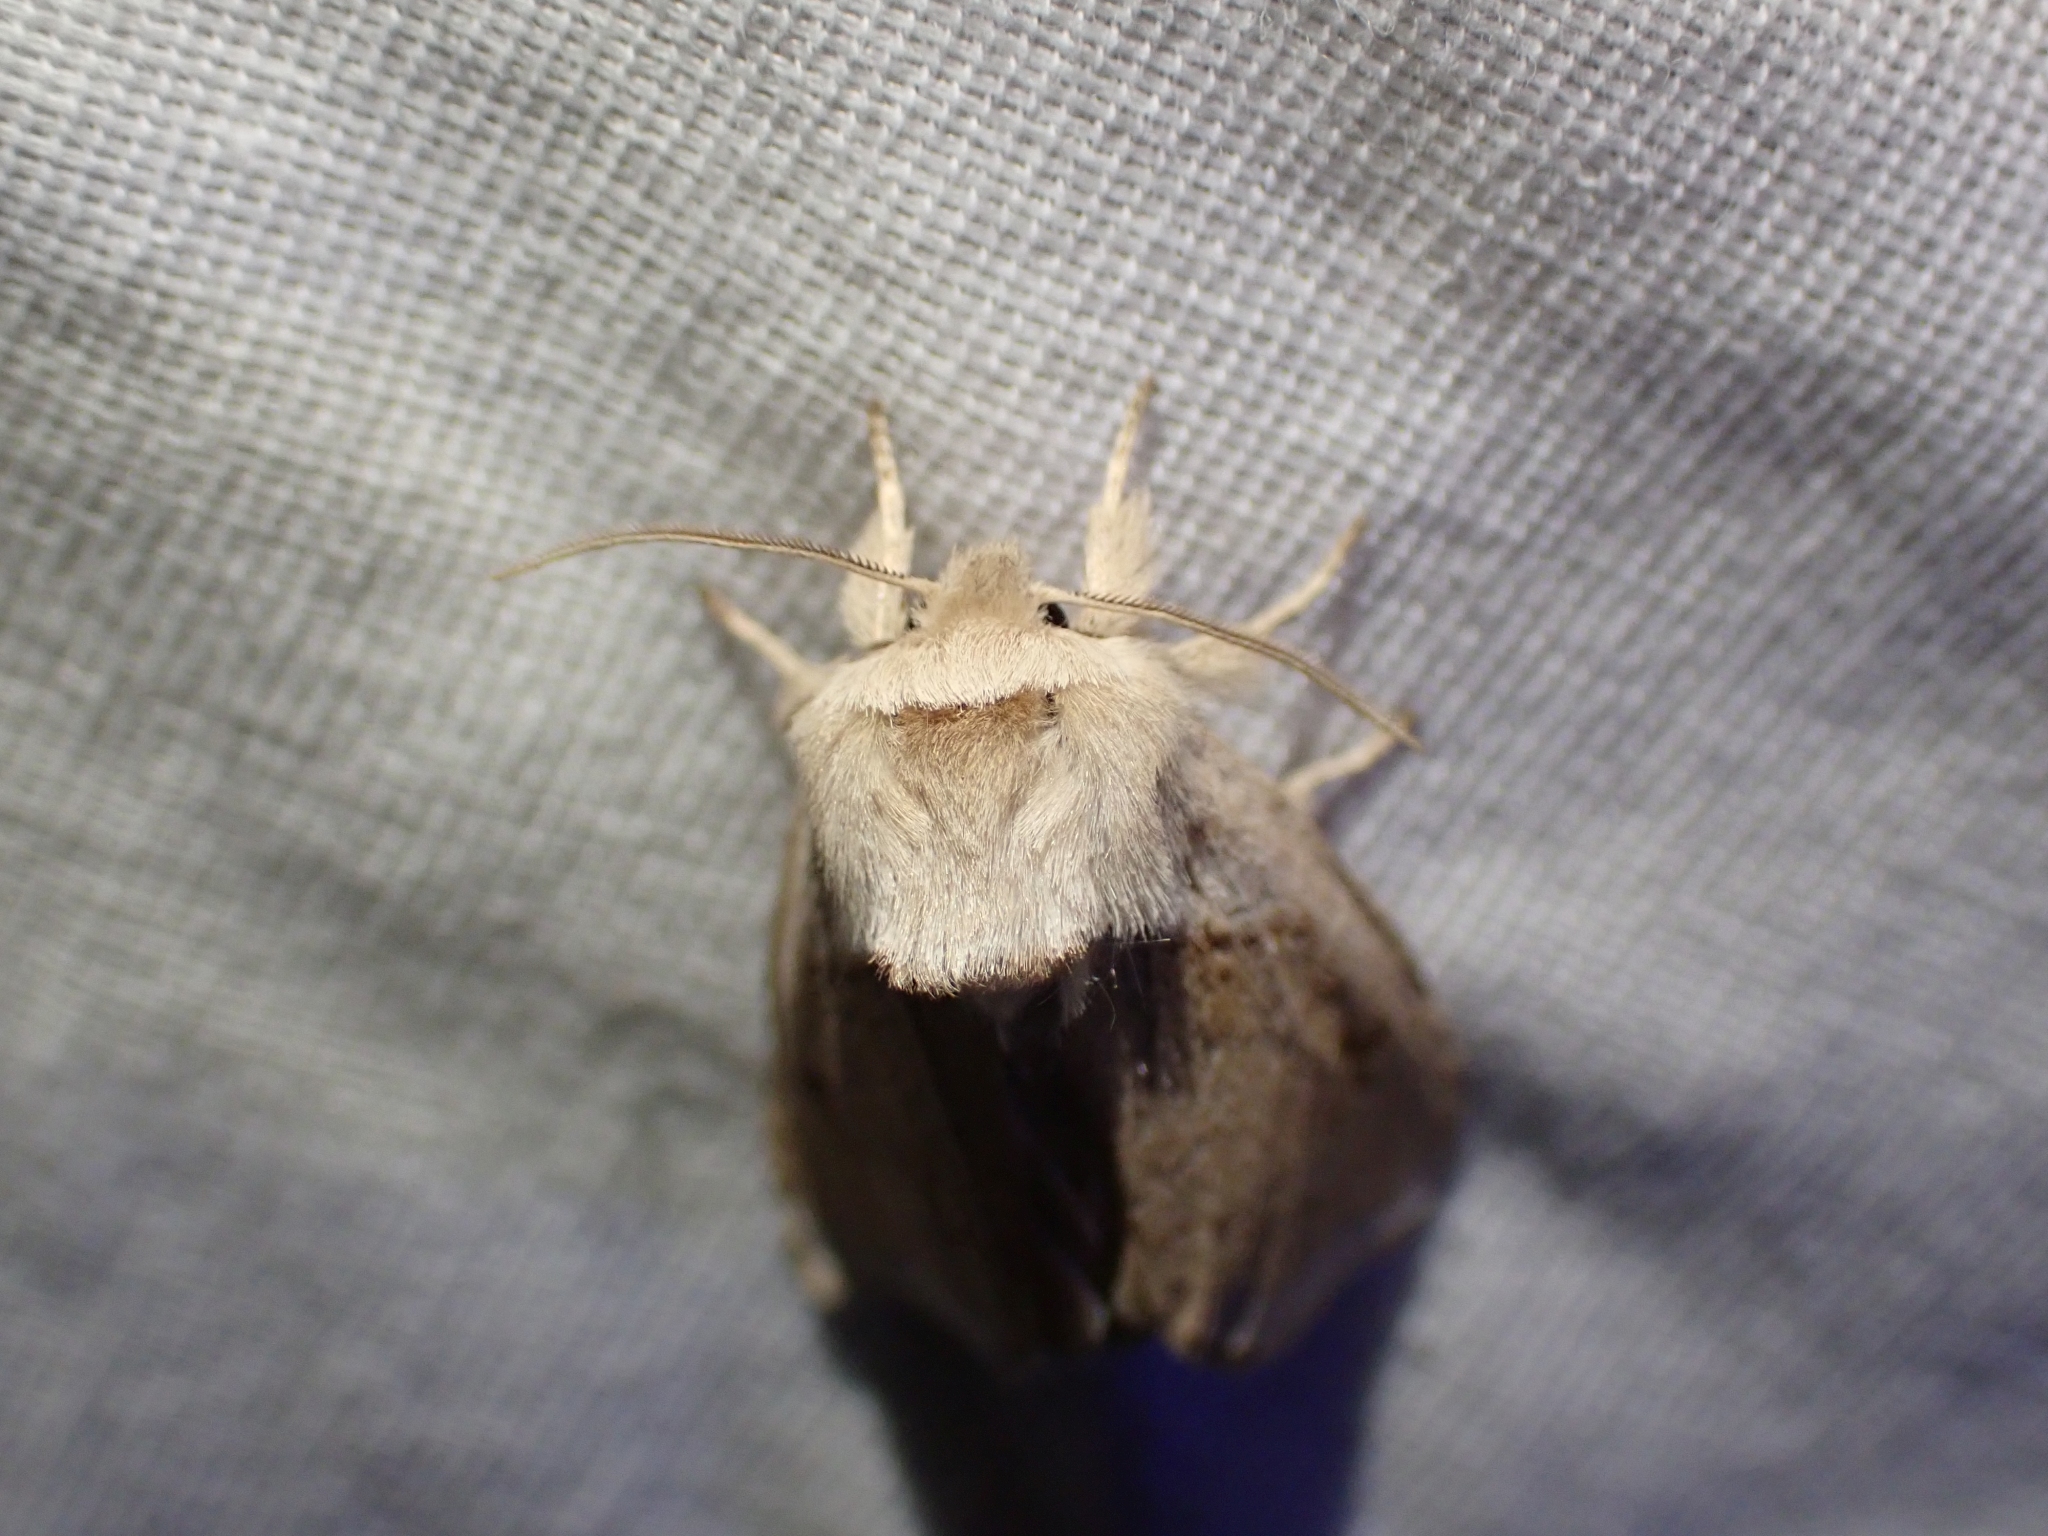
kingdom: Animalia
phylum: Arthropoda
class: Insecta
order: Lepidoptera
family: Noctuidae
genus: Bellura
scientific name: Bellura obliqua
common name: Cattail borer moth
